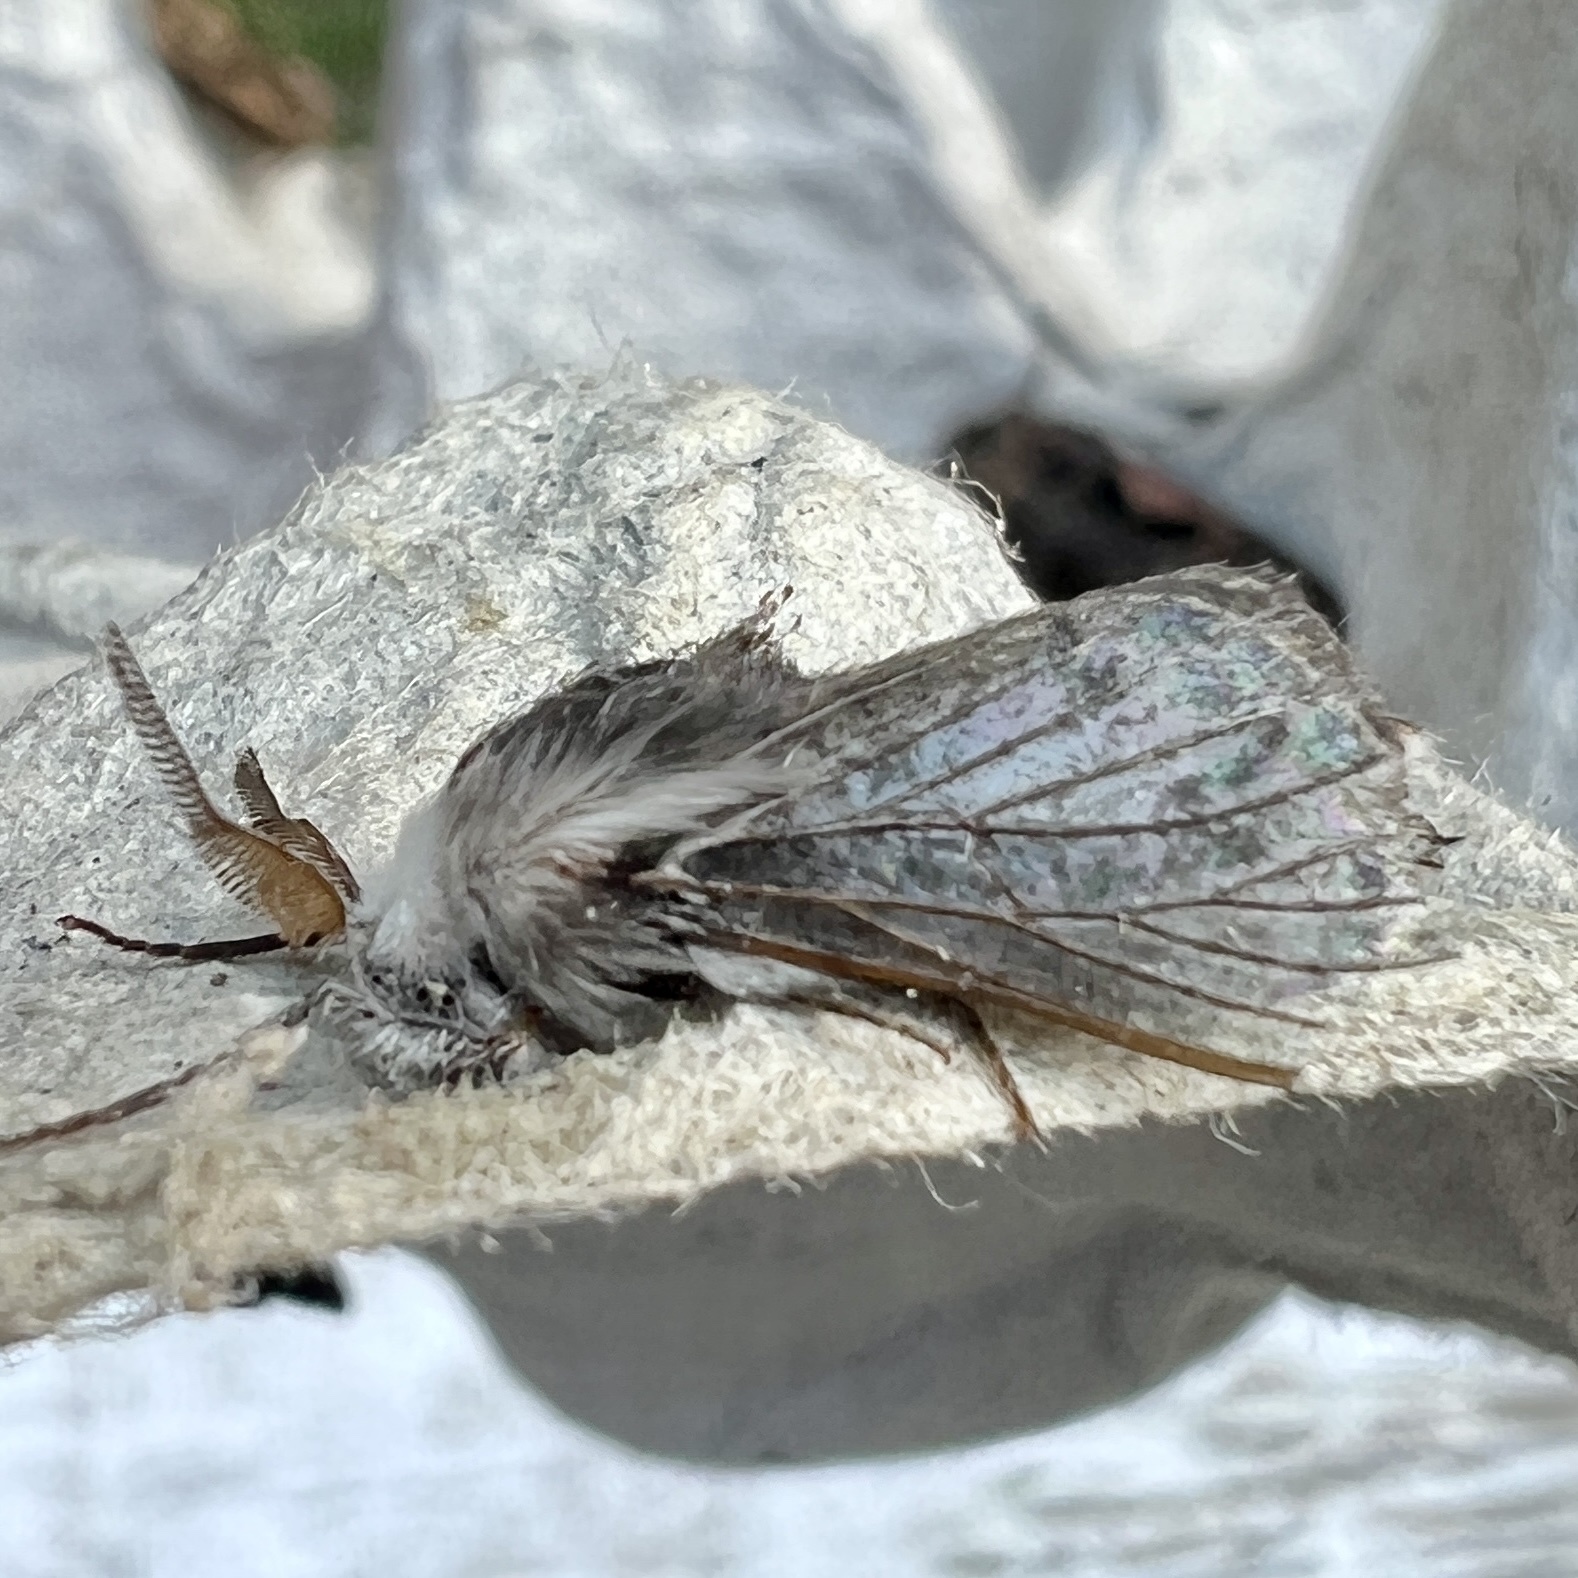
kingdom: Animalia
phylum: Arthropoda
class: Insecta
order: Lepidoptera
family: Lasiocampidae
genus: Tolype
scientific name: Tolype laricis
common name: Larch tolype moth
